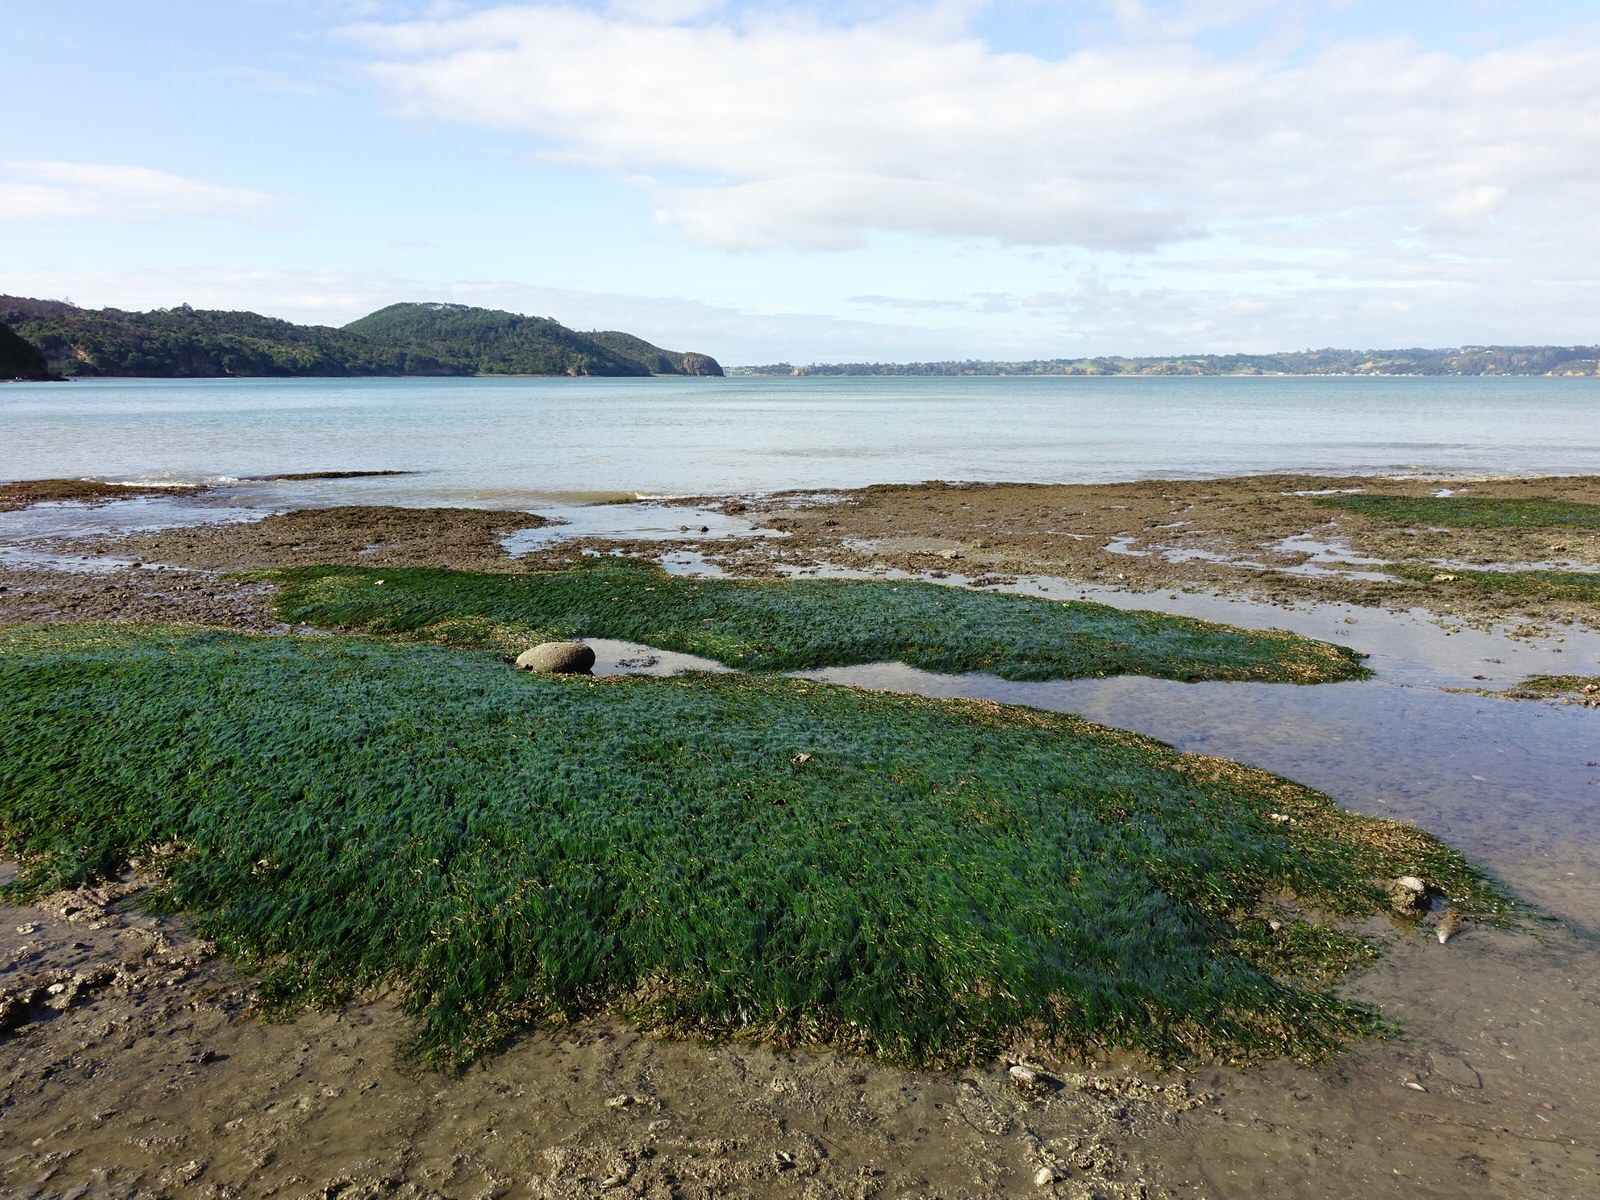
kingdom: Plantae
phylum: Tracheophyta
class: Liliopsida
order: Alismatales
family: Zosteraceae
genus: Zostera
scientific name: Zostera novazelandica
